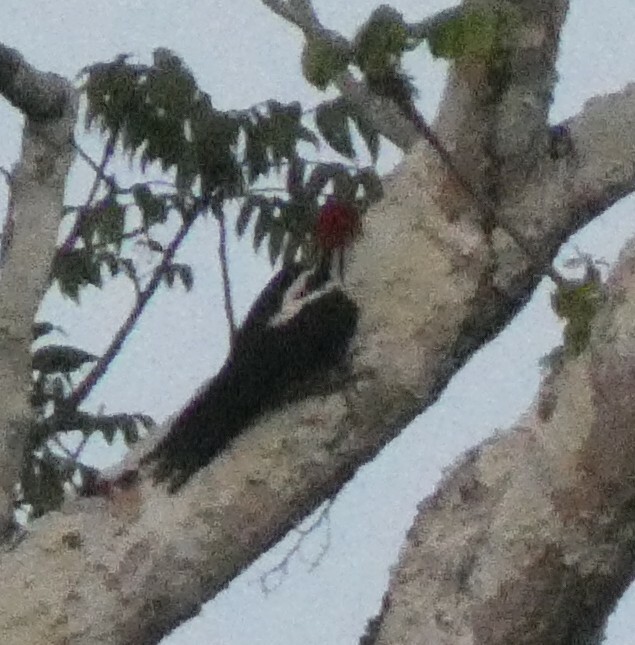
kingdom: Animalia
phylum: Chordata
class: Aves
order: Piciformes
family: Picidae
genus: Campephilus
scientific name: Campephilus melanoleucos
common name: Crimson-crested woodpecker
